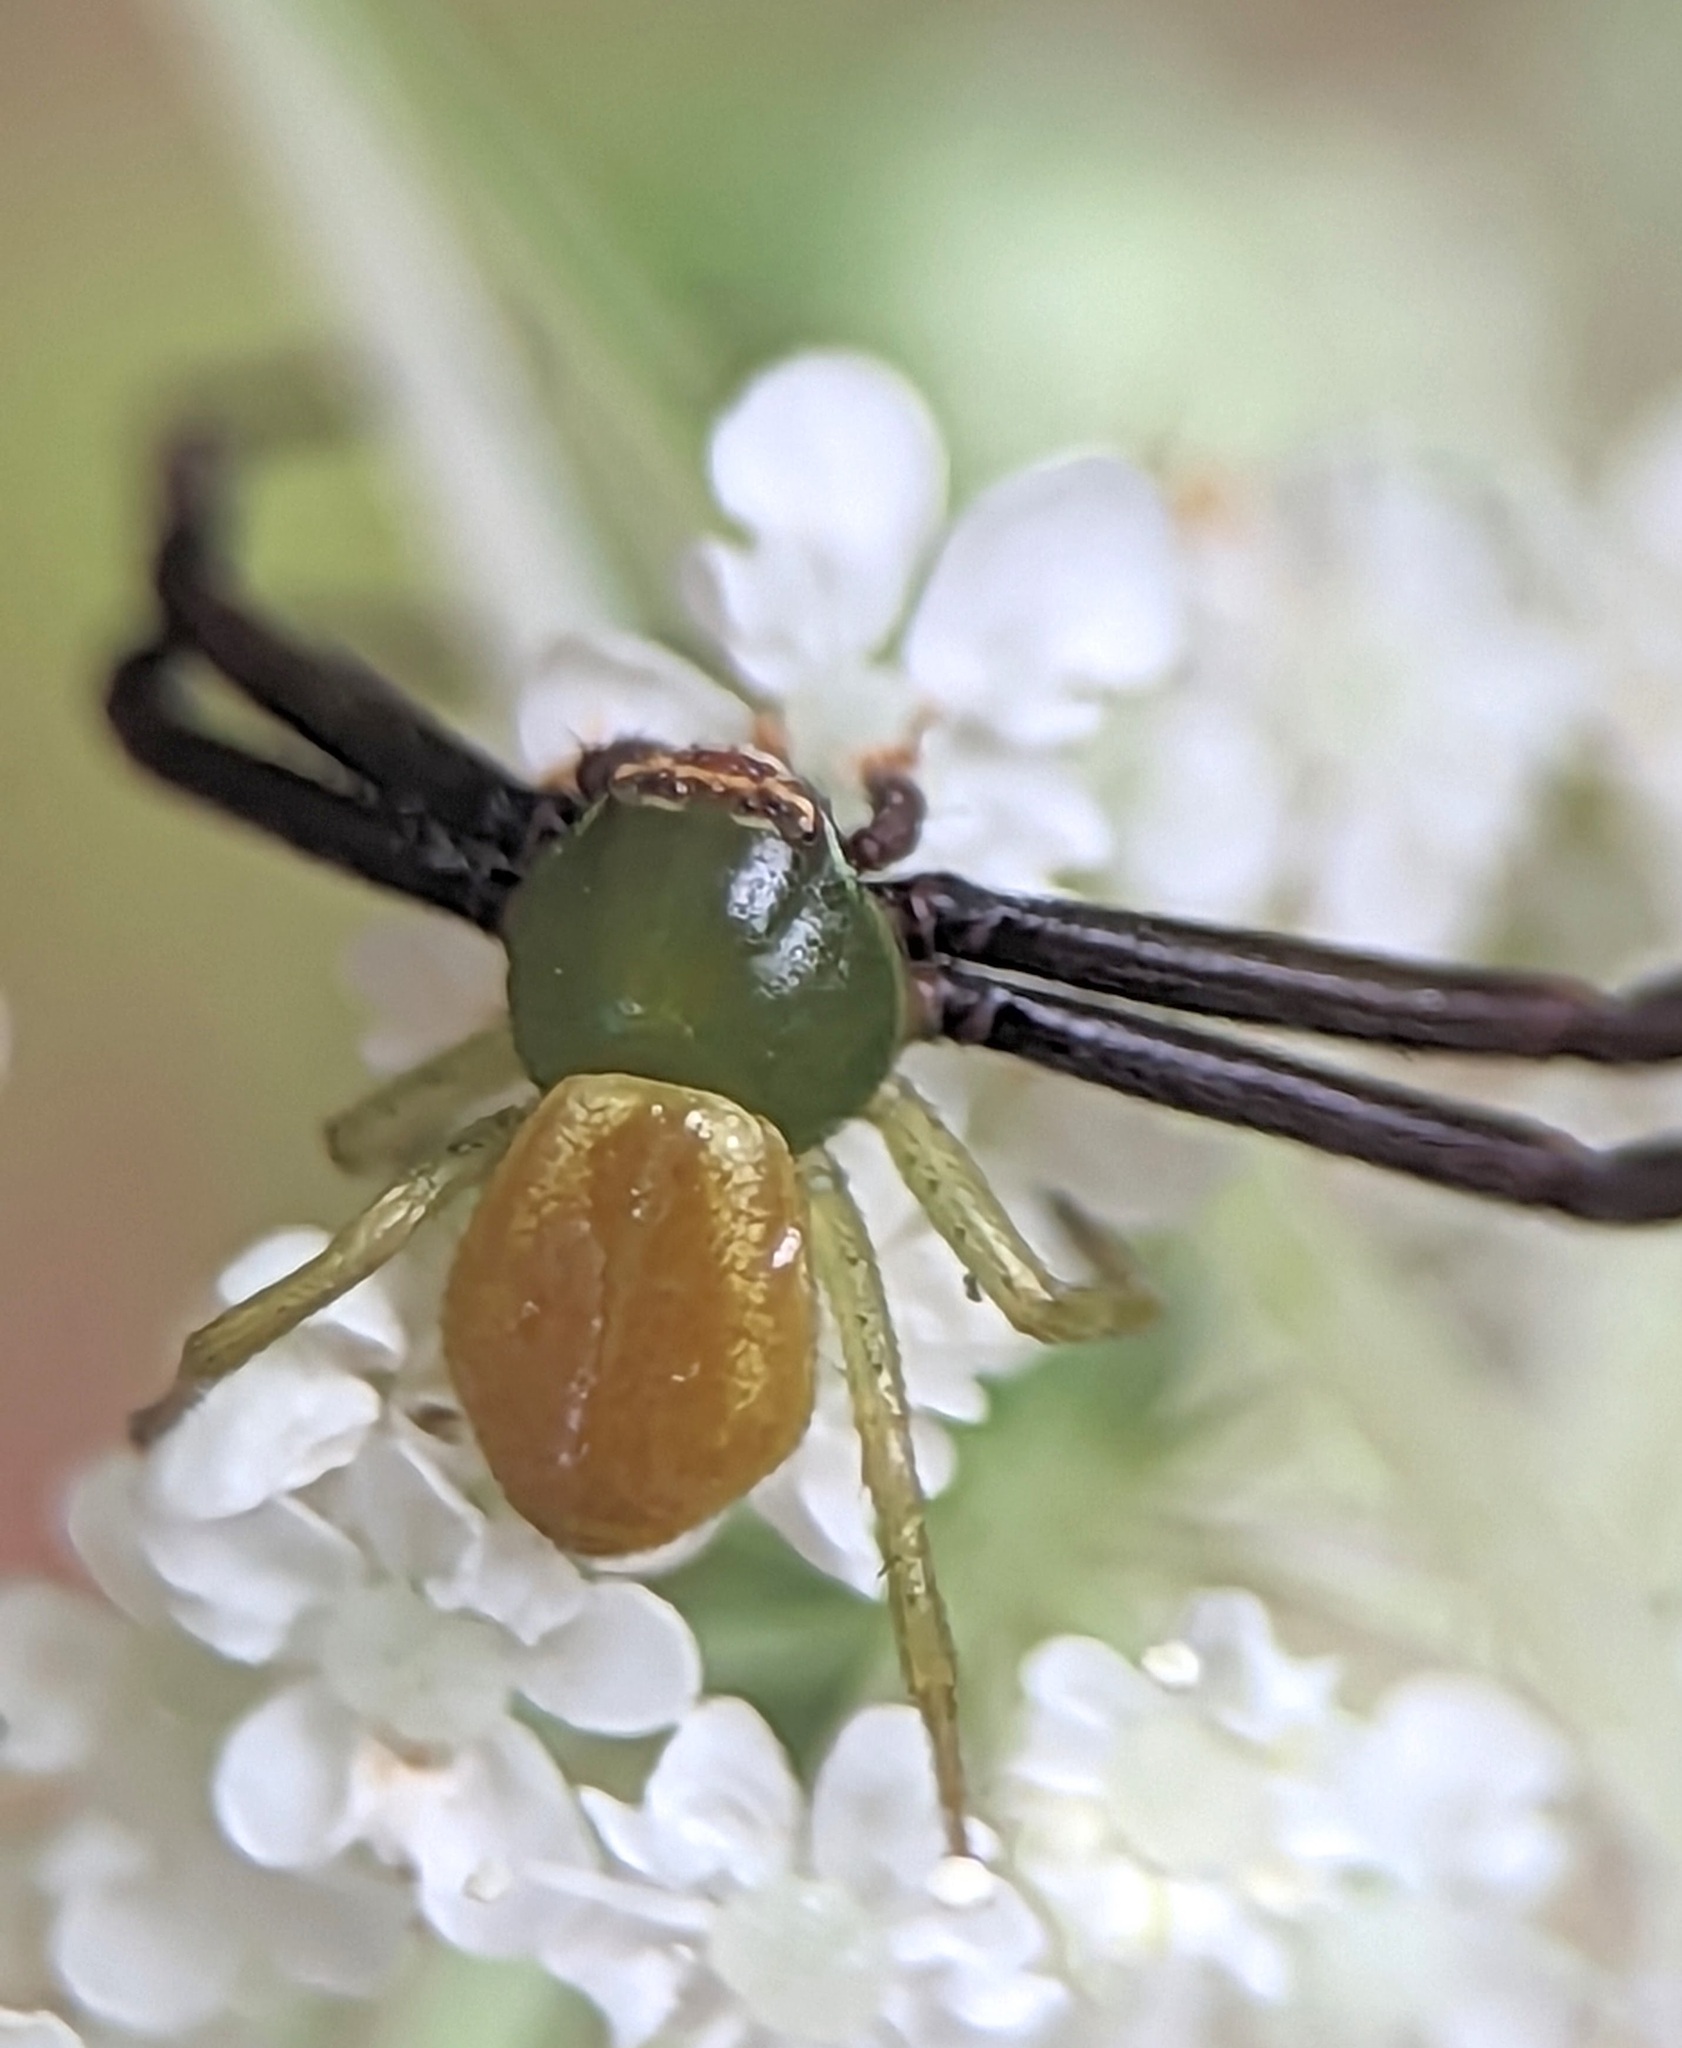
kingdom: Animalia
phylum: Arthropoda
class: Arachnida
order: Araneae
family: Thomisidae
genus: Misumenoides
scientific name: Misumenoides formosipes
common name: White-banded crab spider
